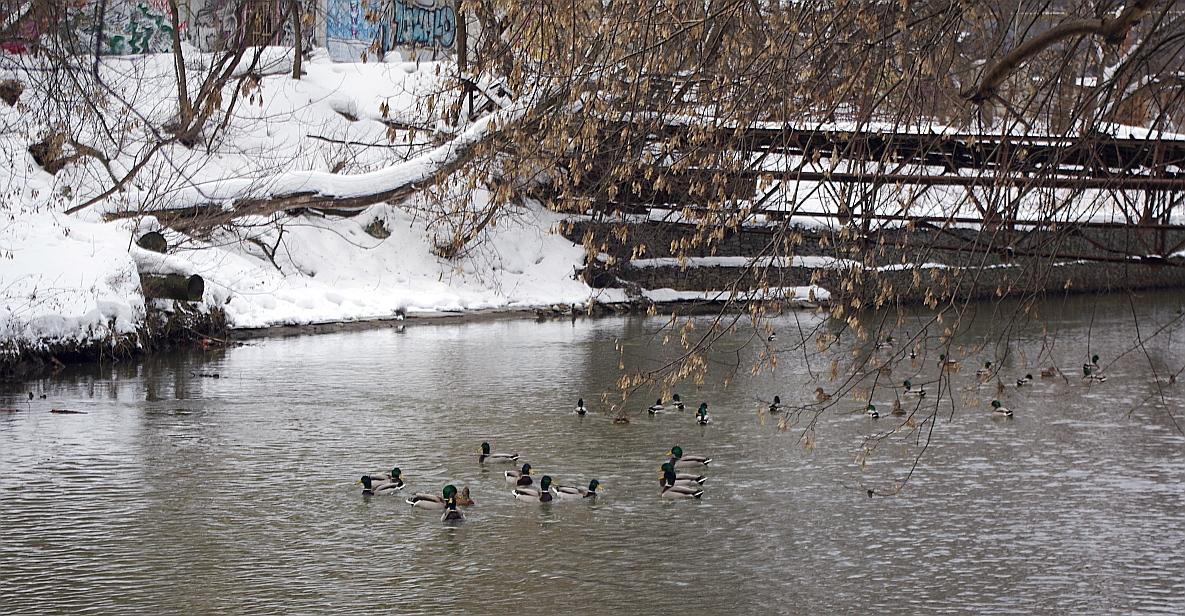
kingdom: Animalia
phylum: Chordata
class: Aves
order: Anseriformes
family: Anatidae
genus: Anas
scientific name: Anas platyrhynchos
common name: Mallard
